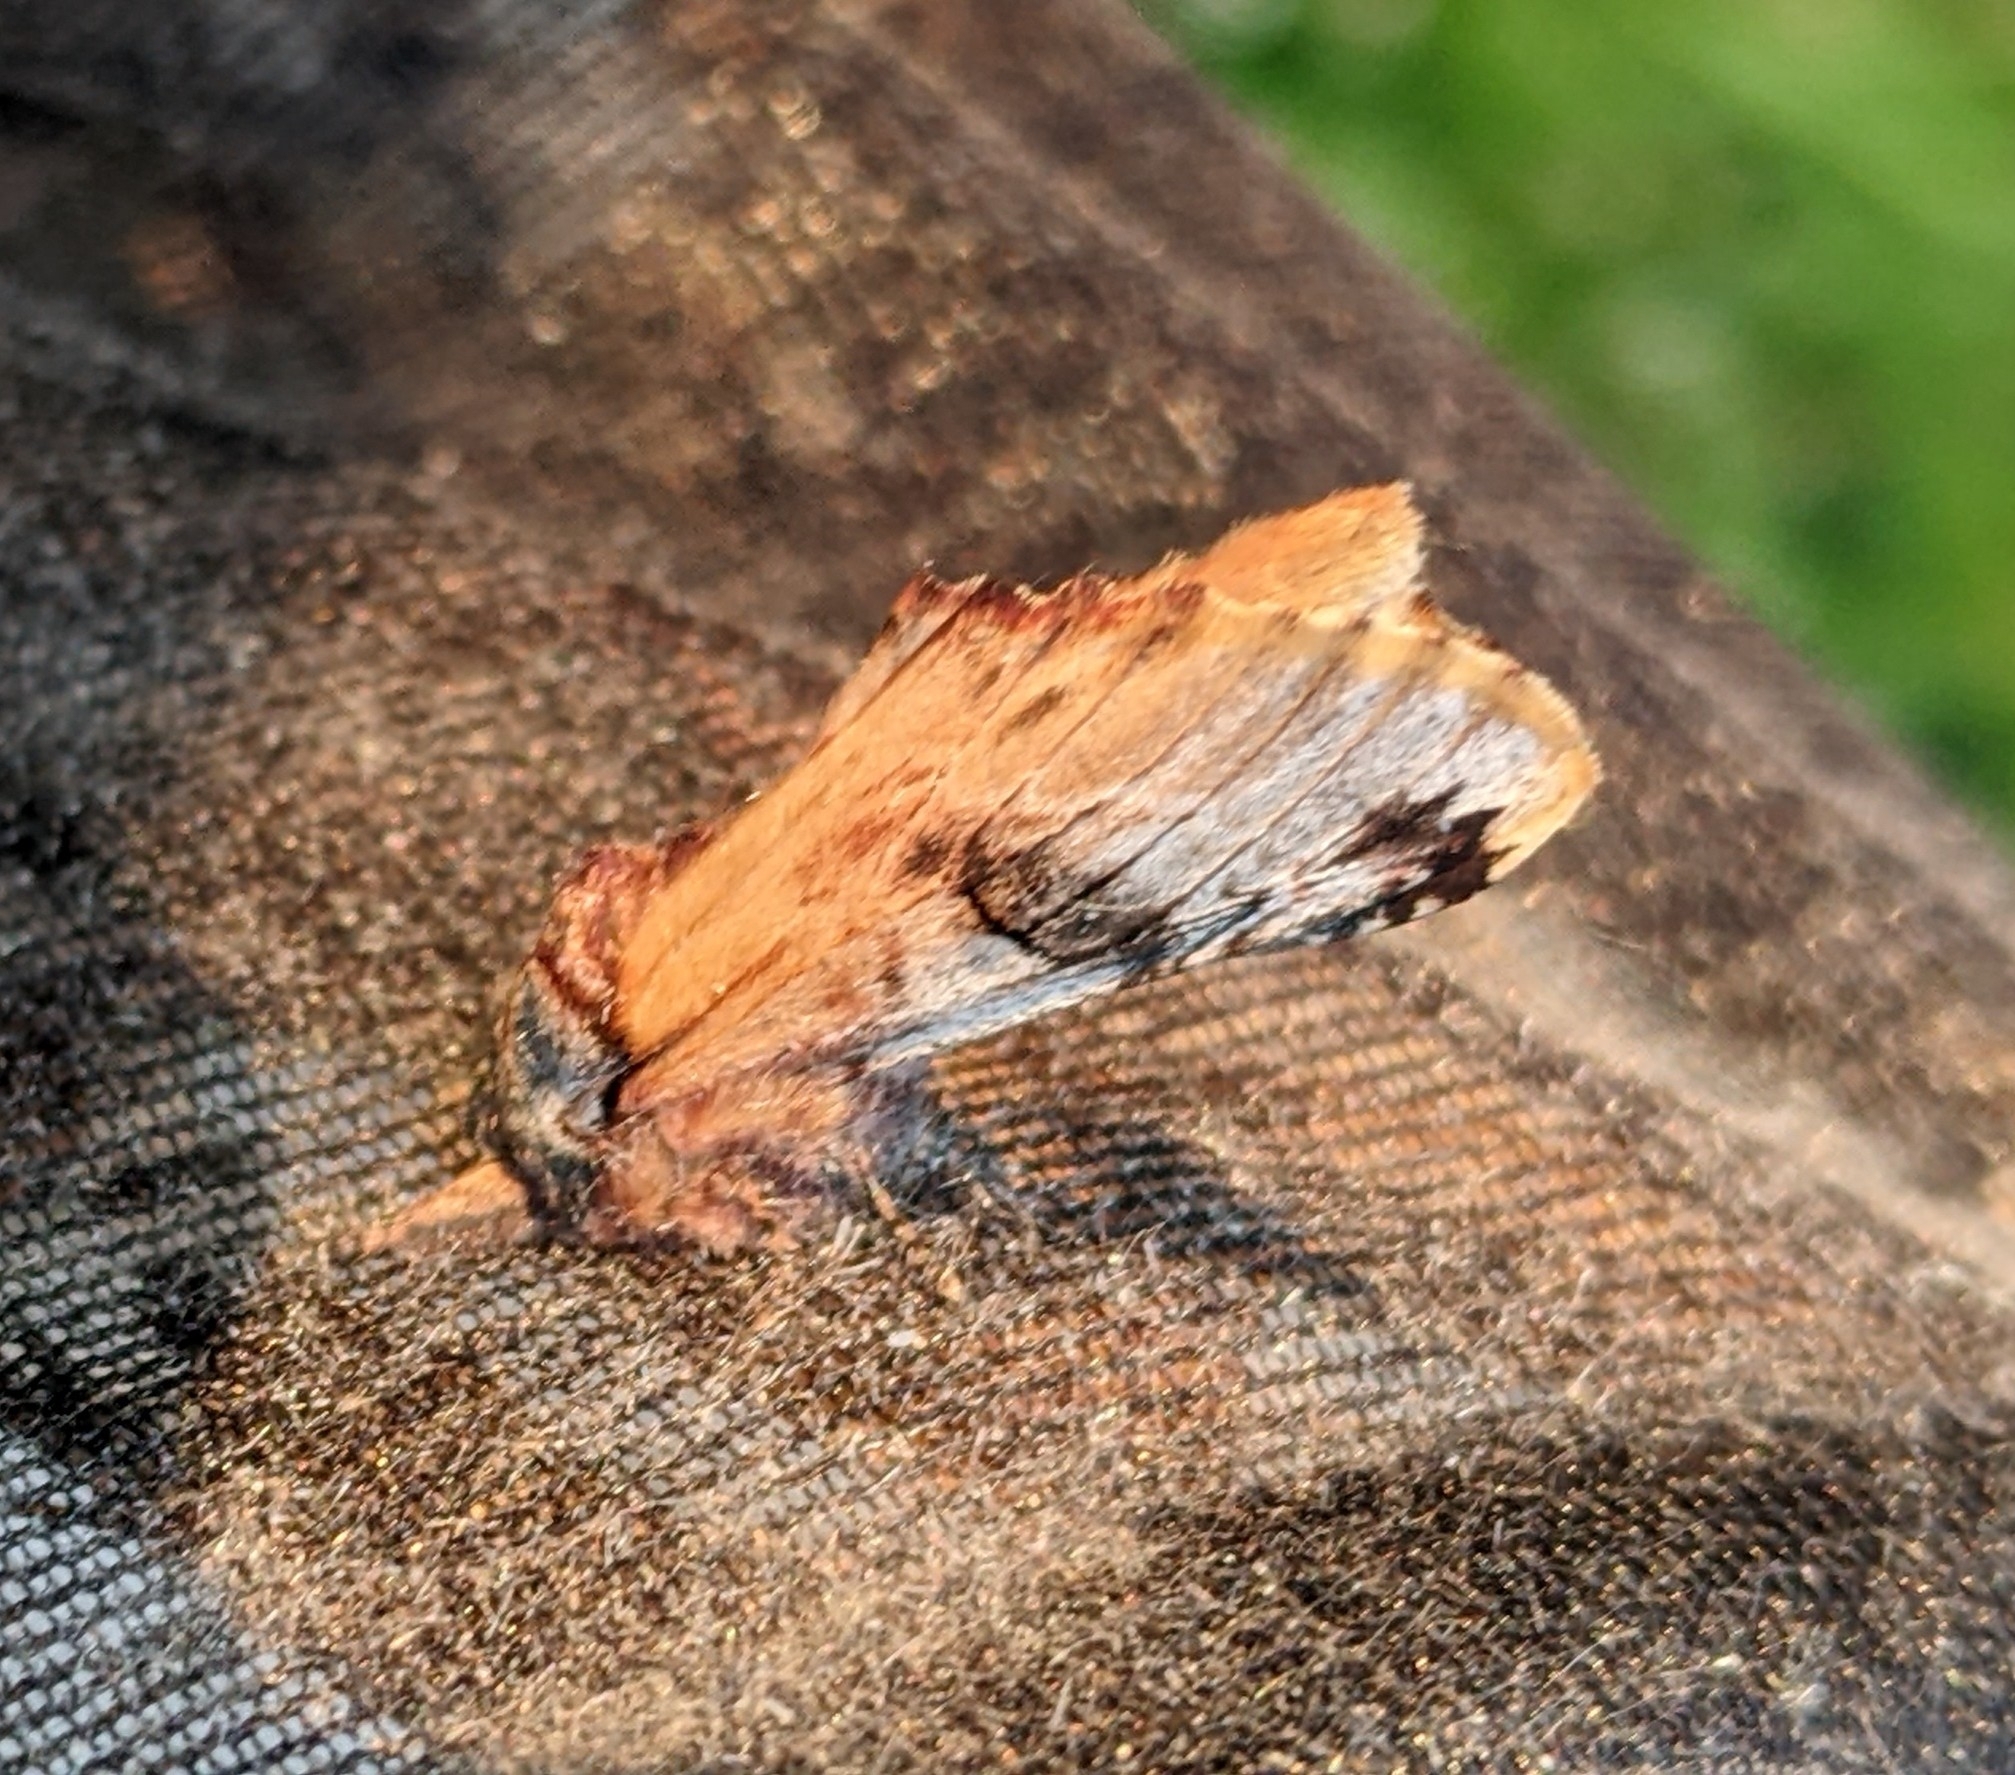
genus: Ianassa
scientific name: Ianassa
